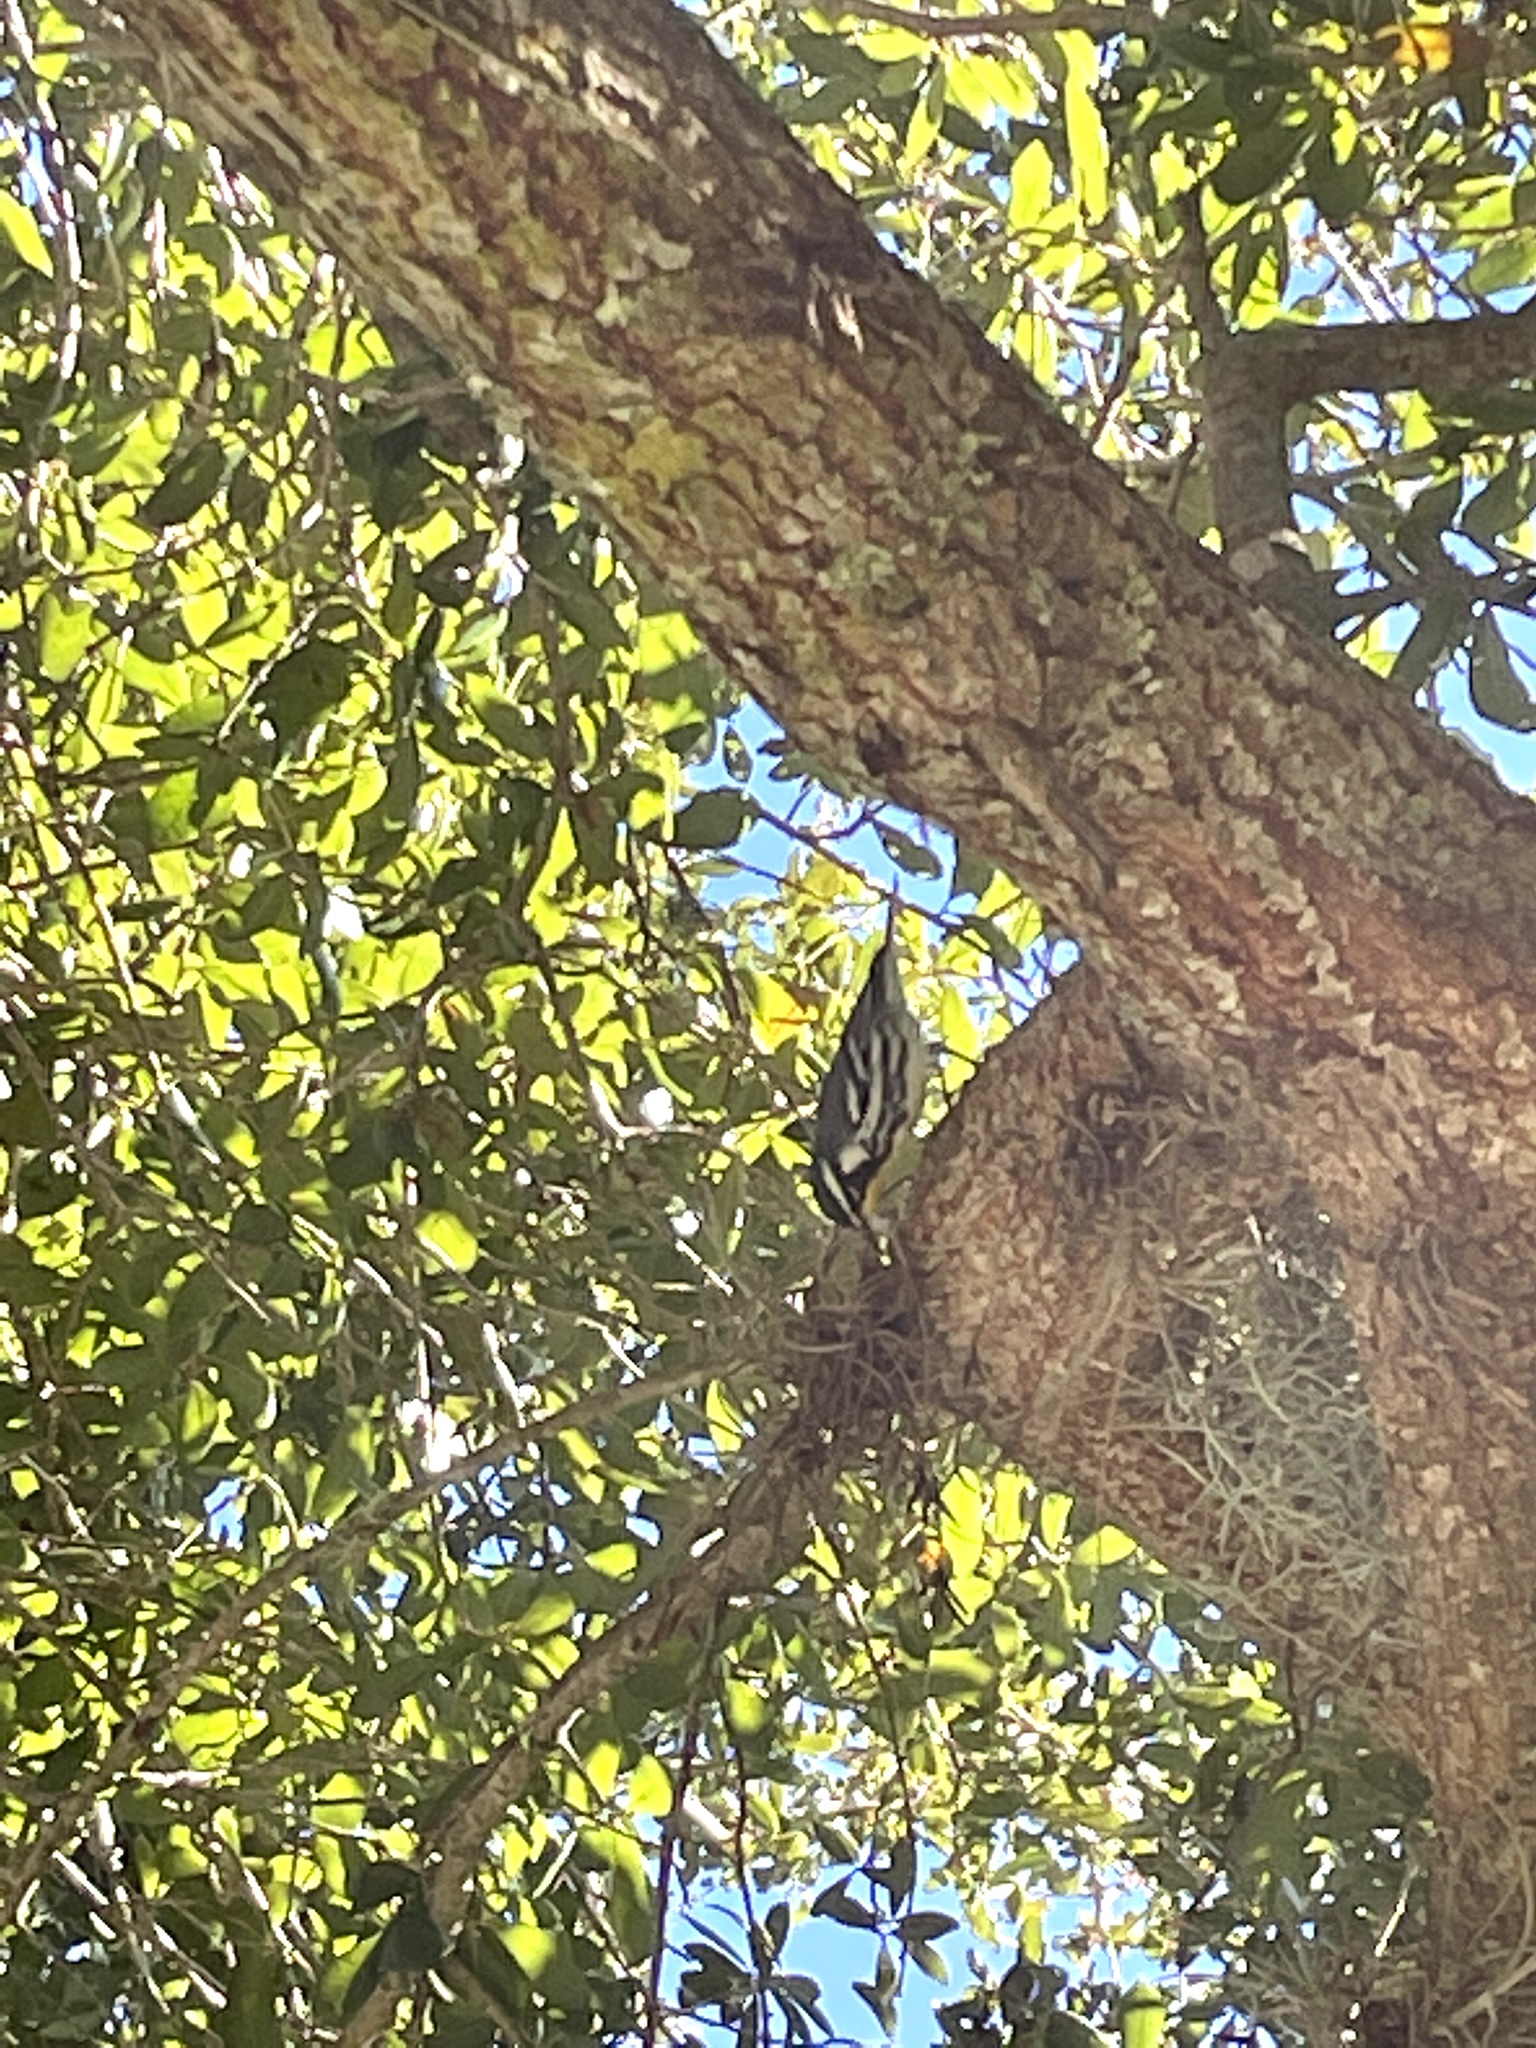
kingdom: Animalia
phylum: Chordata
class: Aves
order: Passeriformes
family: Parulidae
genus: Setophaga
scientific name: Setophaga dominica
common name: Yellow-throated warbler
